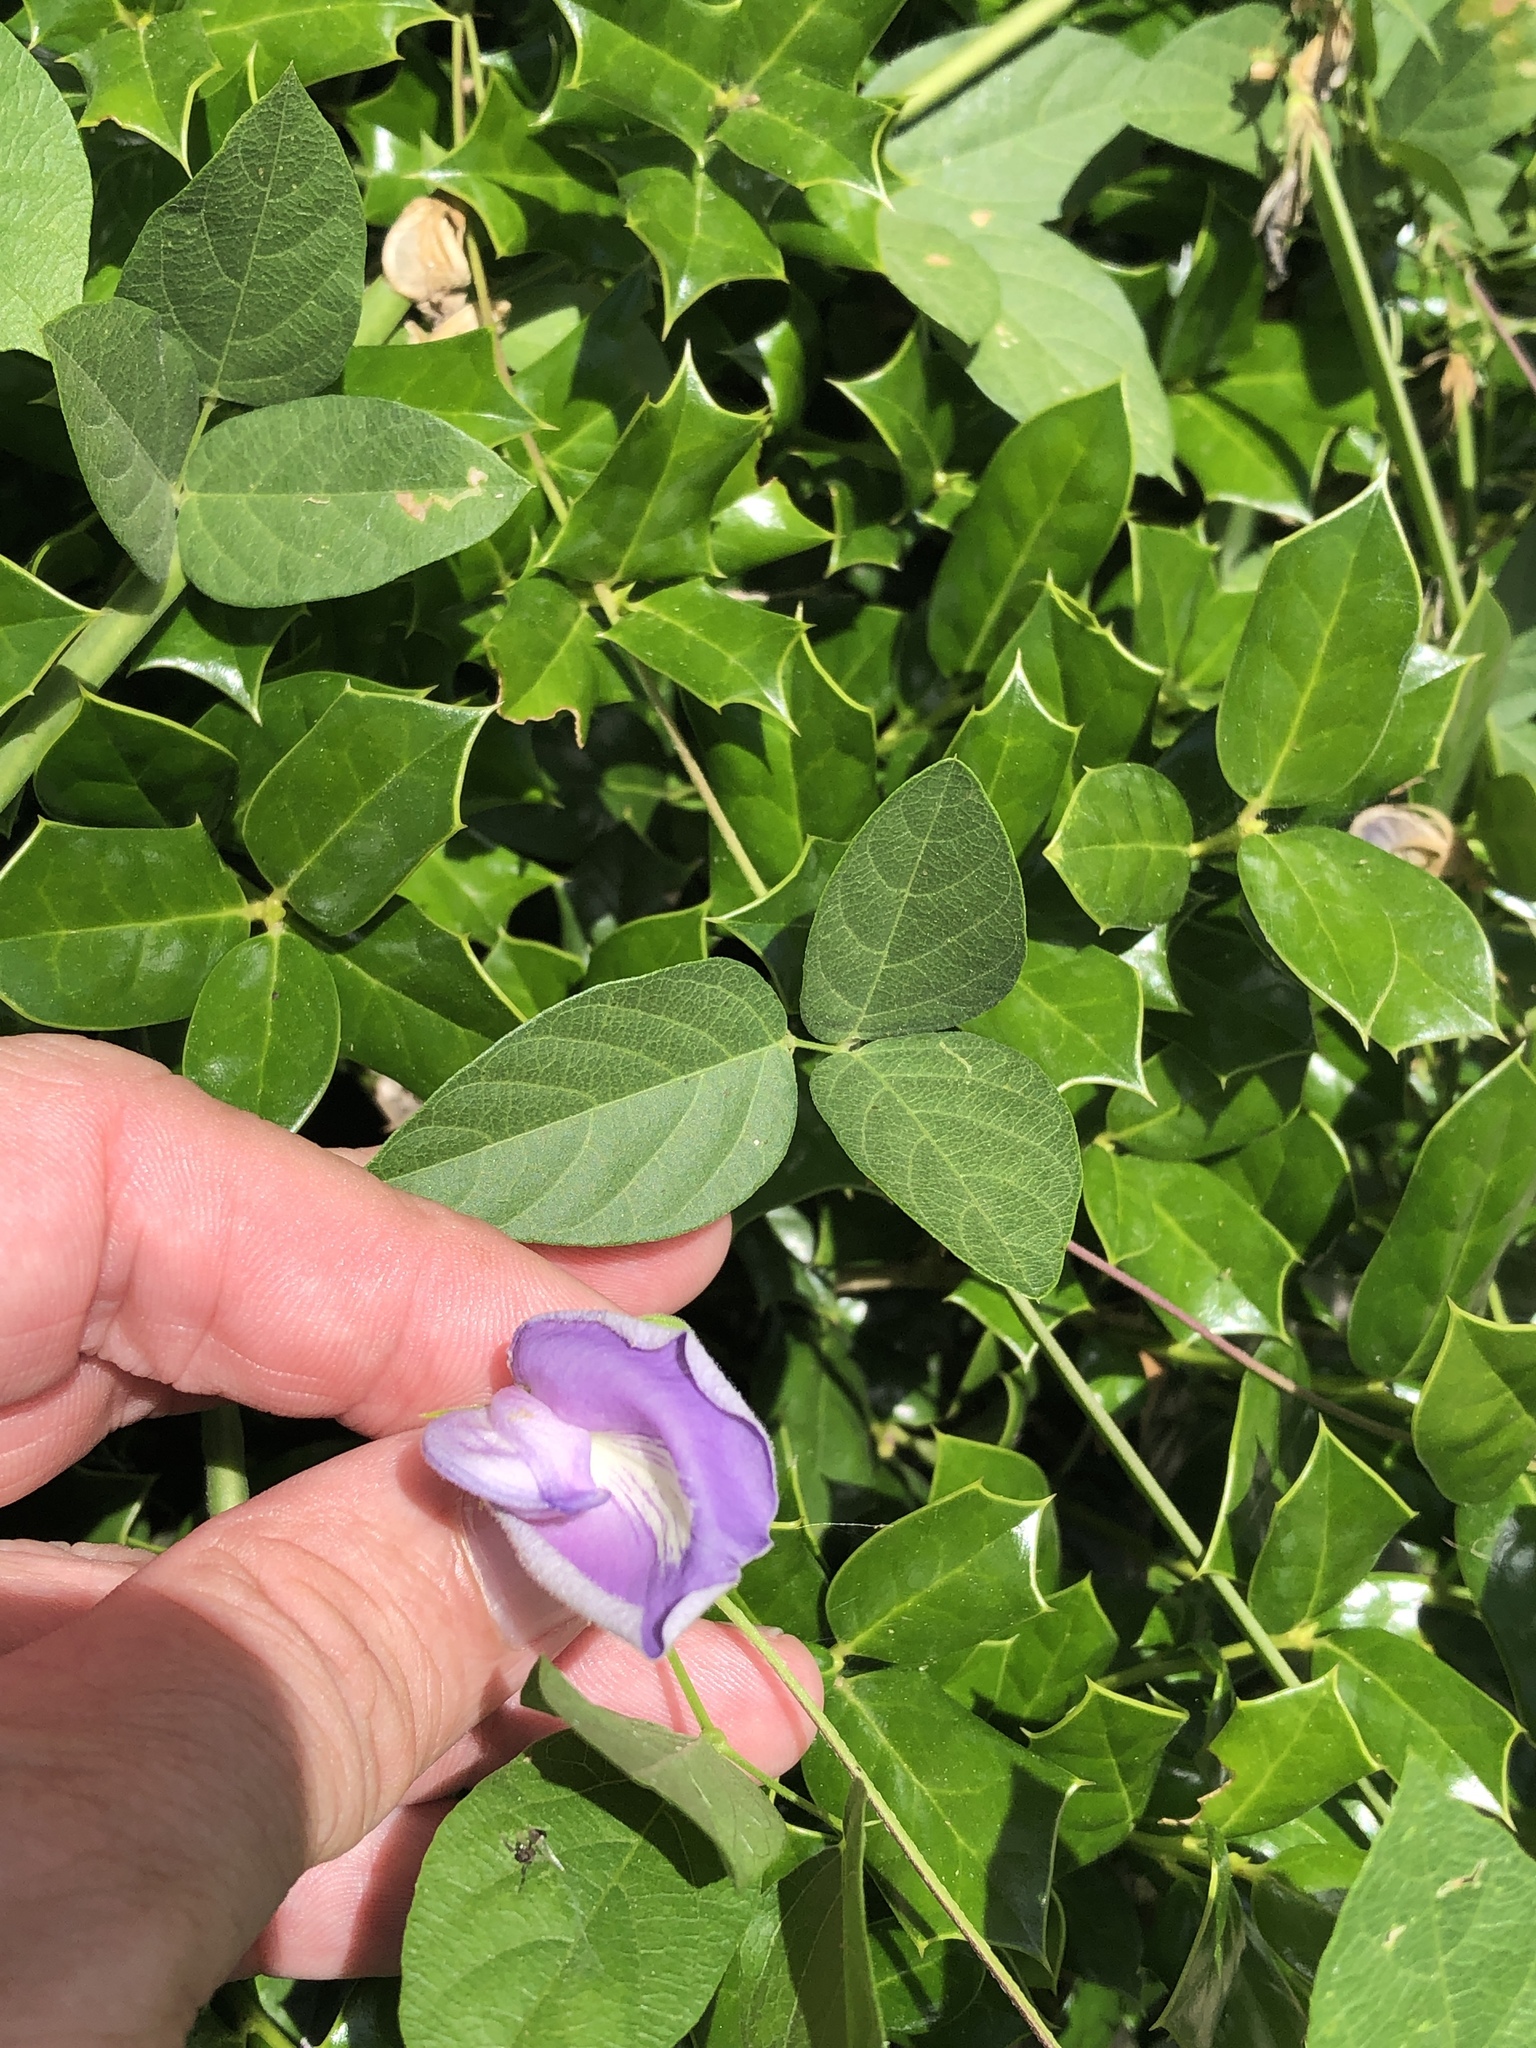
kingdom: Plantae
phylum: Tracheophyta
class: Magnoliopsida
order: Fabales
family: Fabaceae
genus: Centrosema
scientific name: Centrosema virginianum
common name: Butterfly-pea
